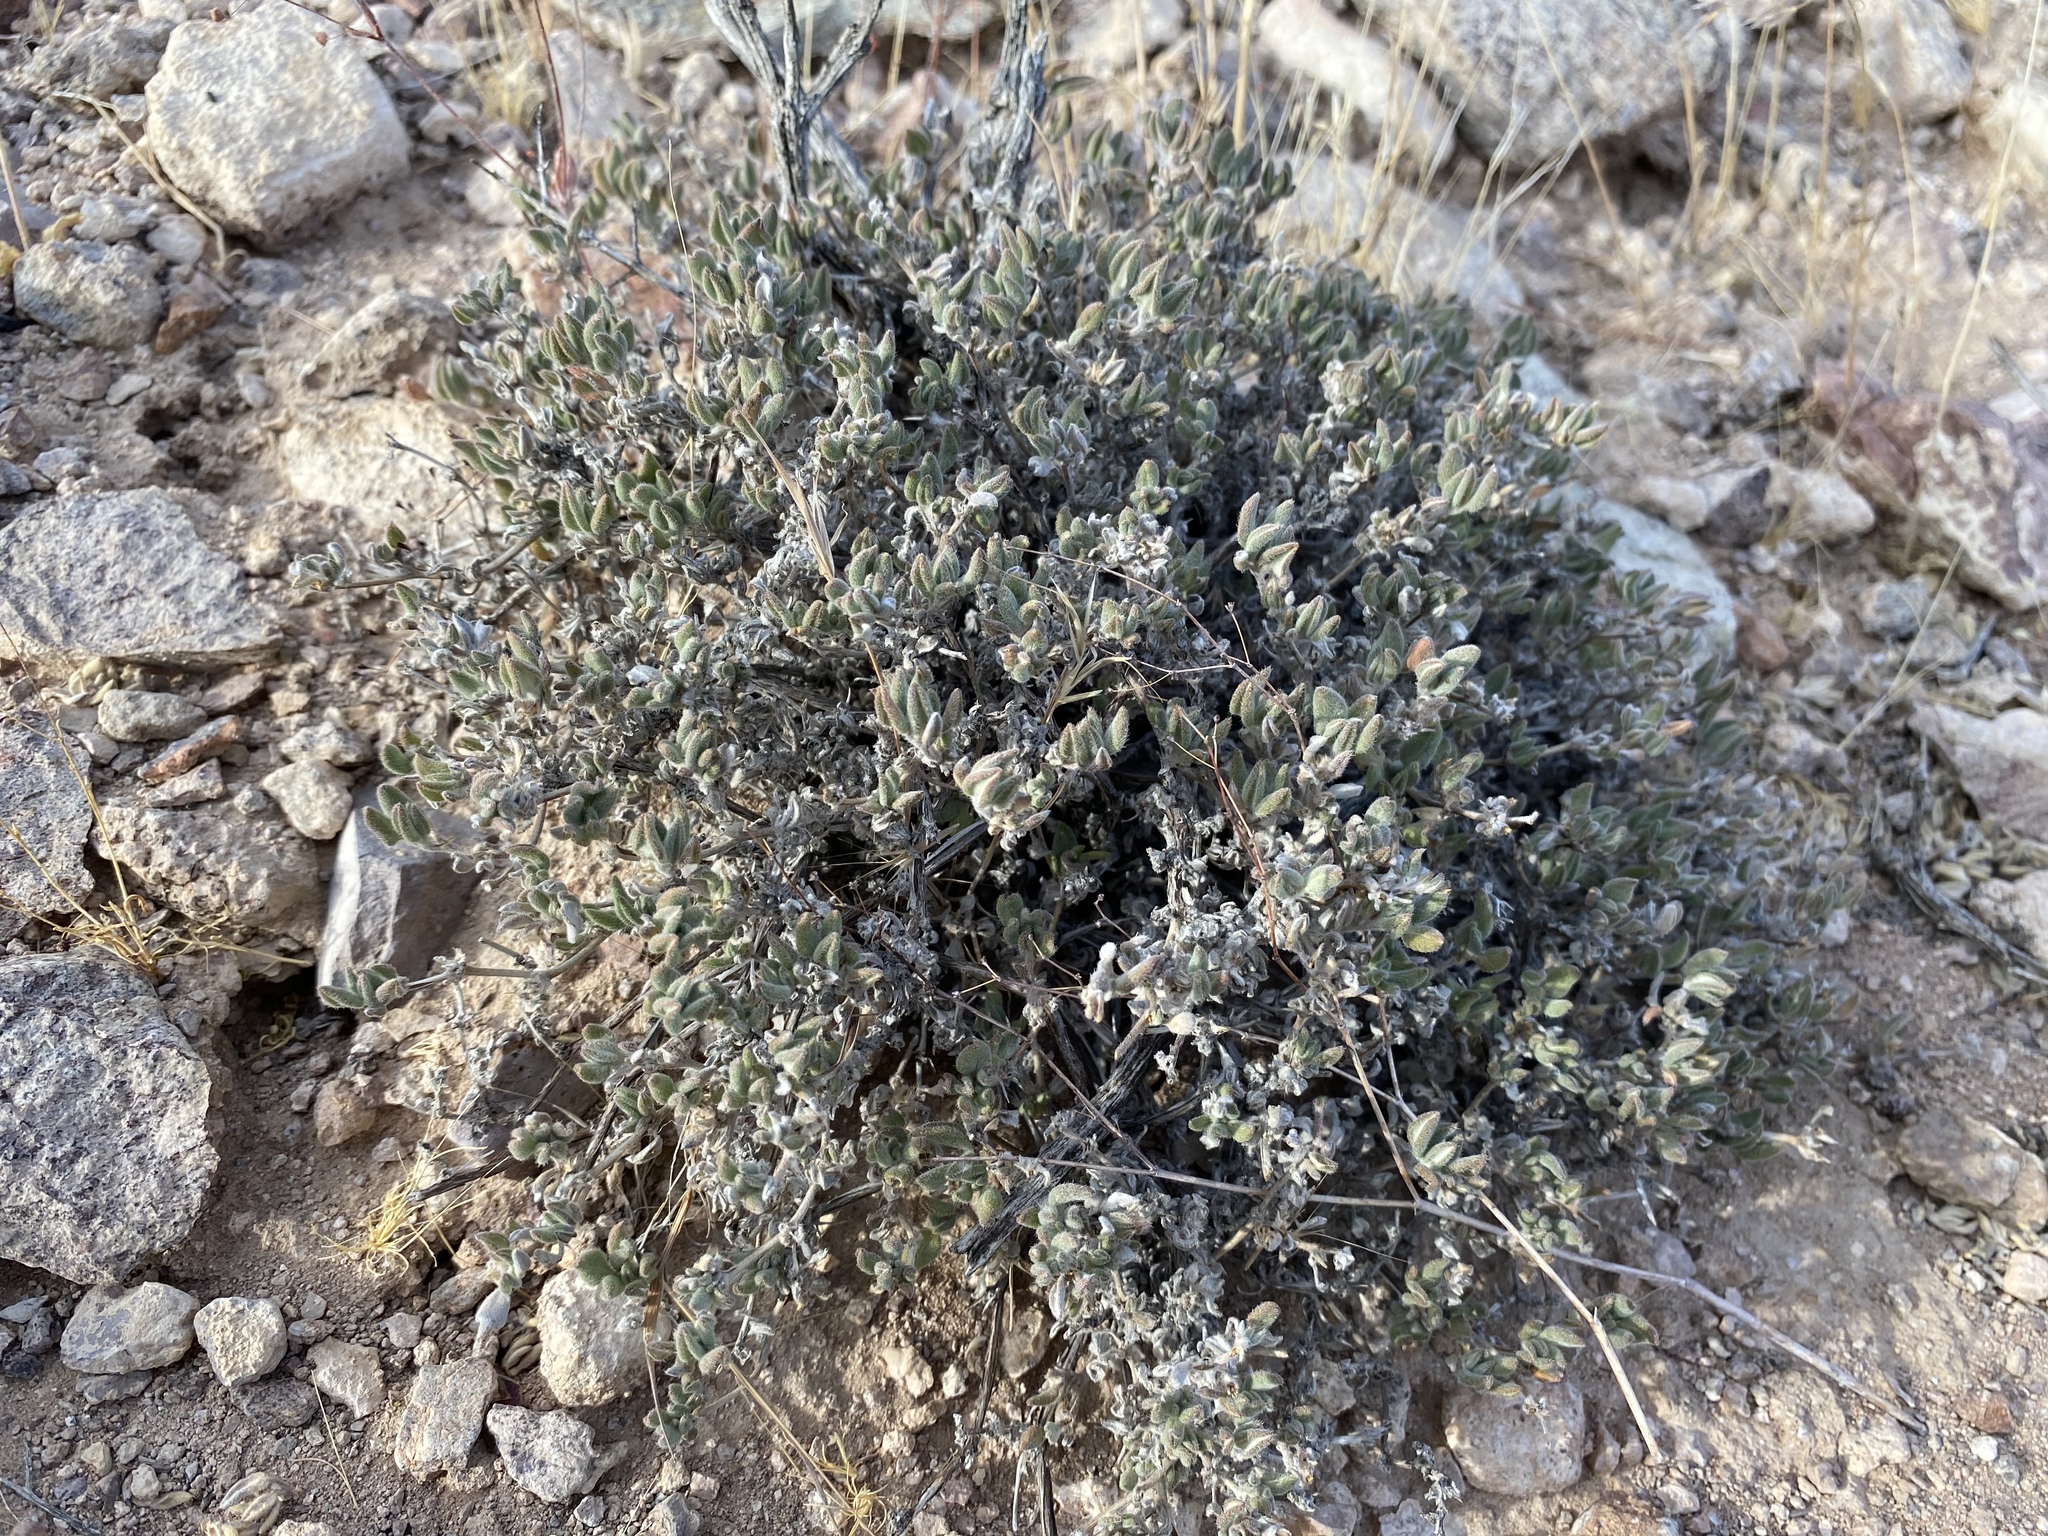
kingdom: Plantae
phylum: Tracheophyta
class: Magnoliopsida
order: Boraginales
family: Ehretiaceae
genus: Tiquilia
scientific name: Tiquilia canescens
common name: Hairy tiquilia
